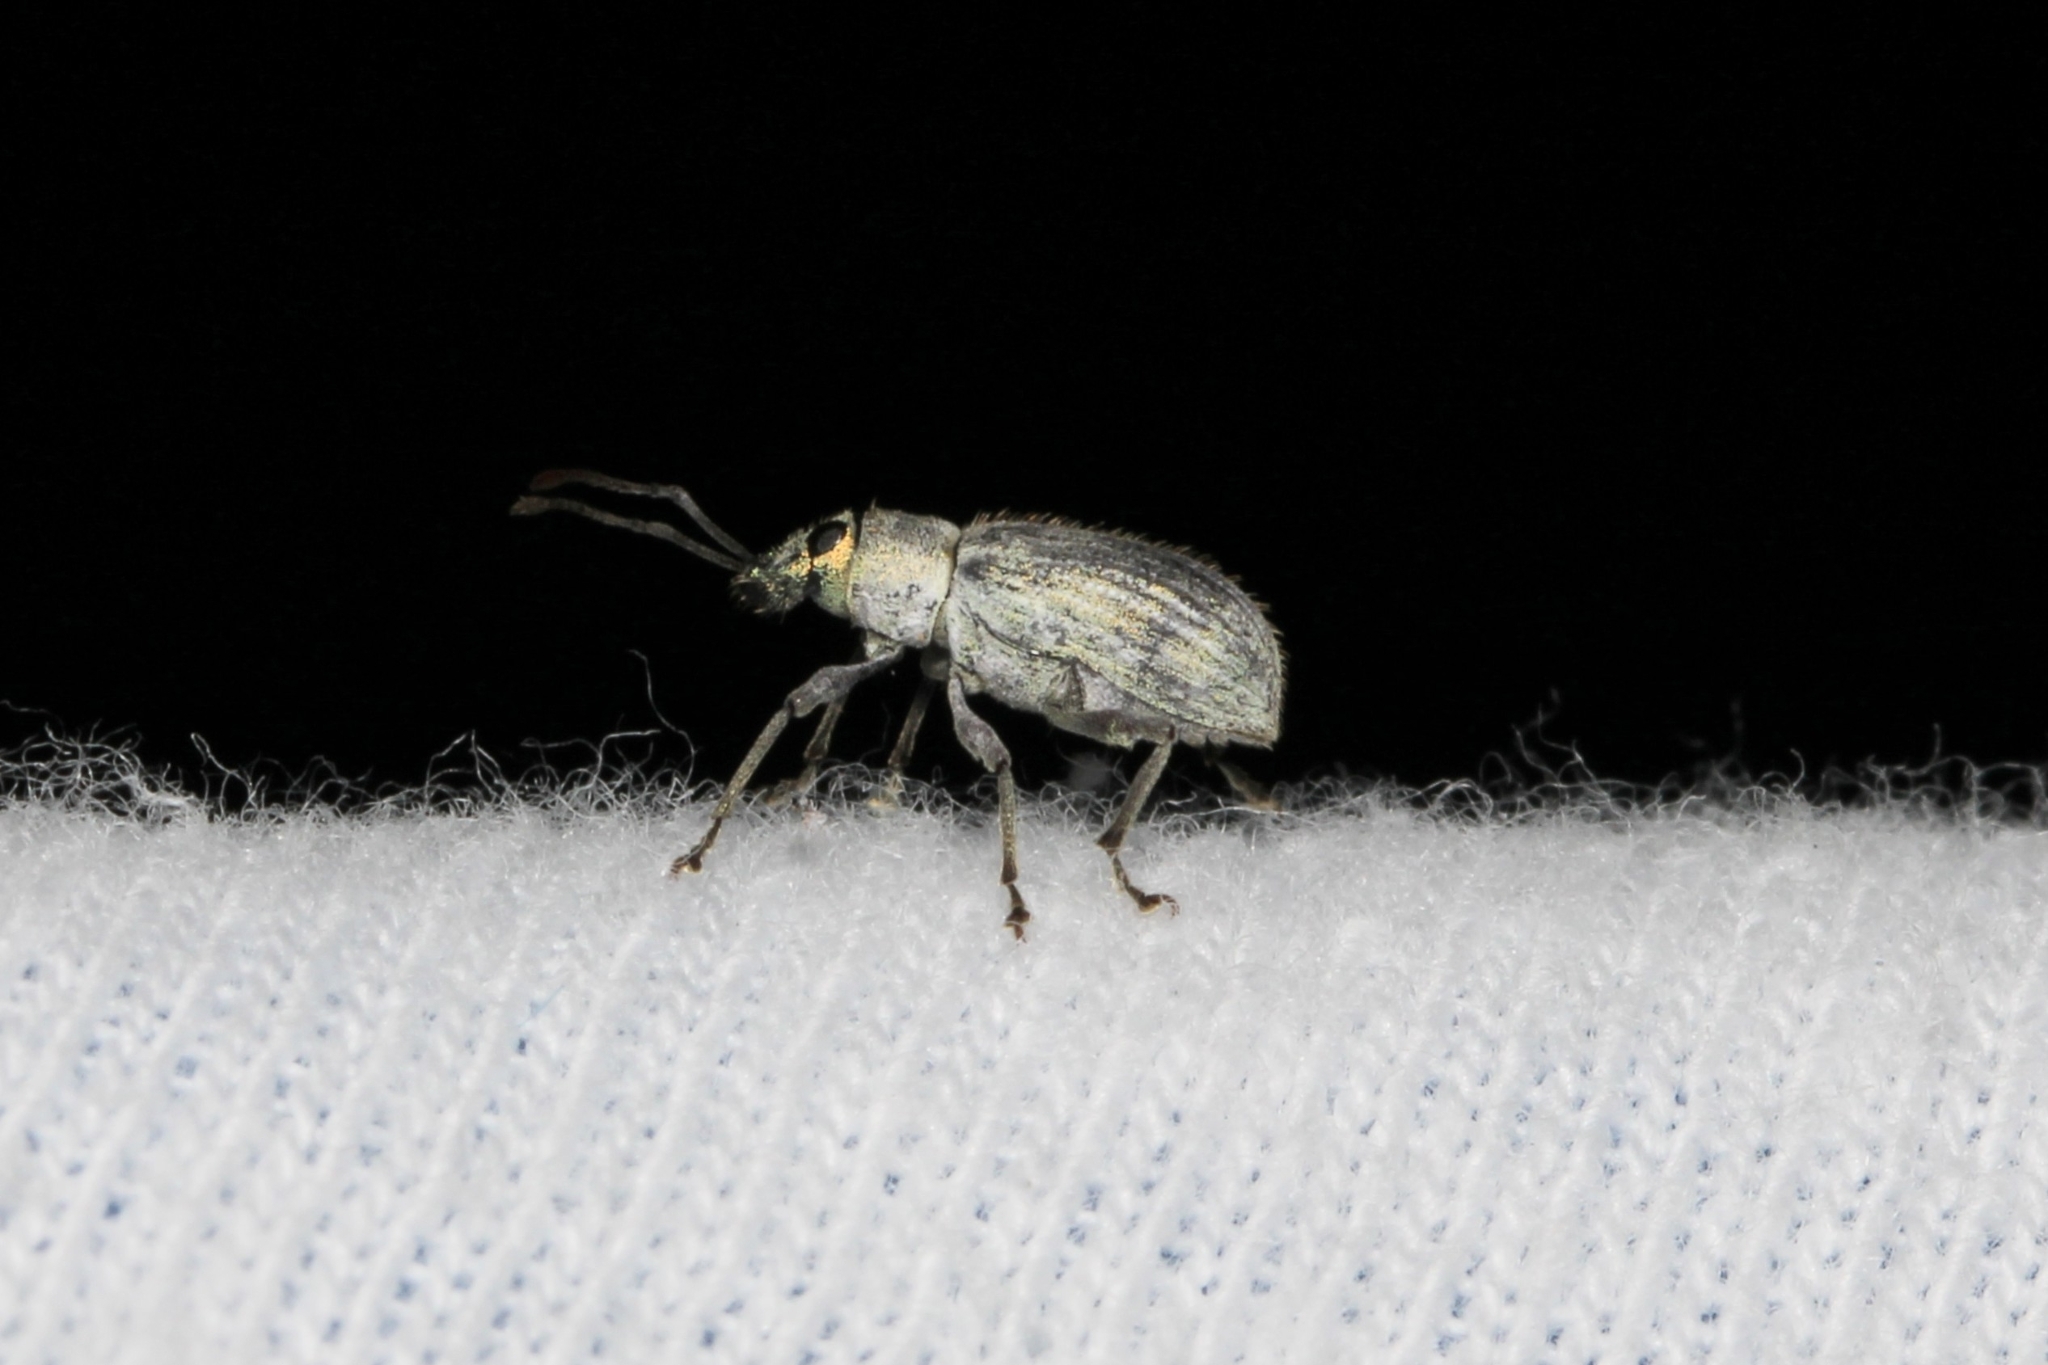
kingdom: Animalia
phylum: Arthropoda
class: Insecta
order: Coleoptera
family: Curculionidae
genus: Cyrtepistomus
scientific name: Cyrtepistomus castaneus
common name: Weevil
